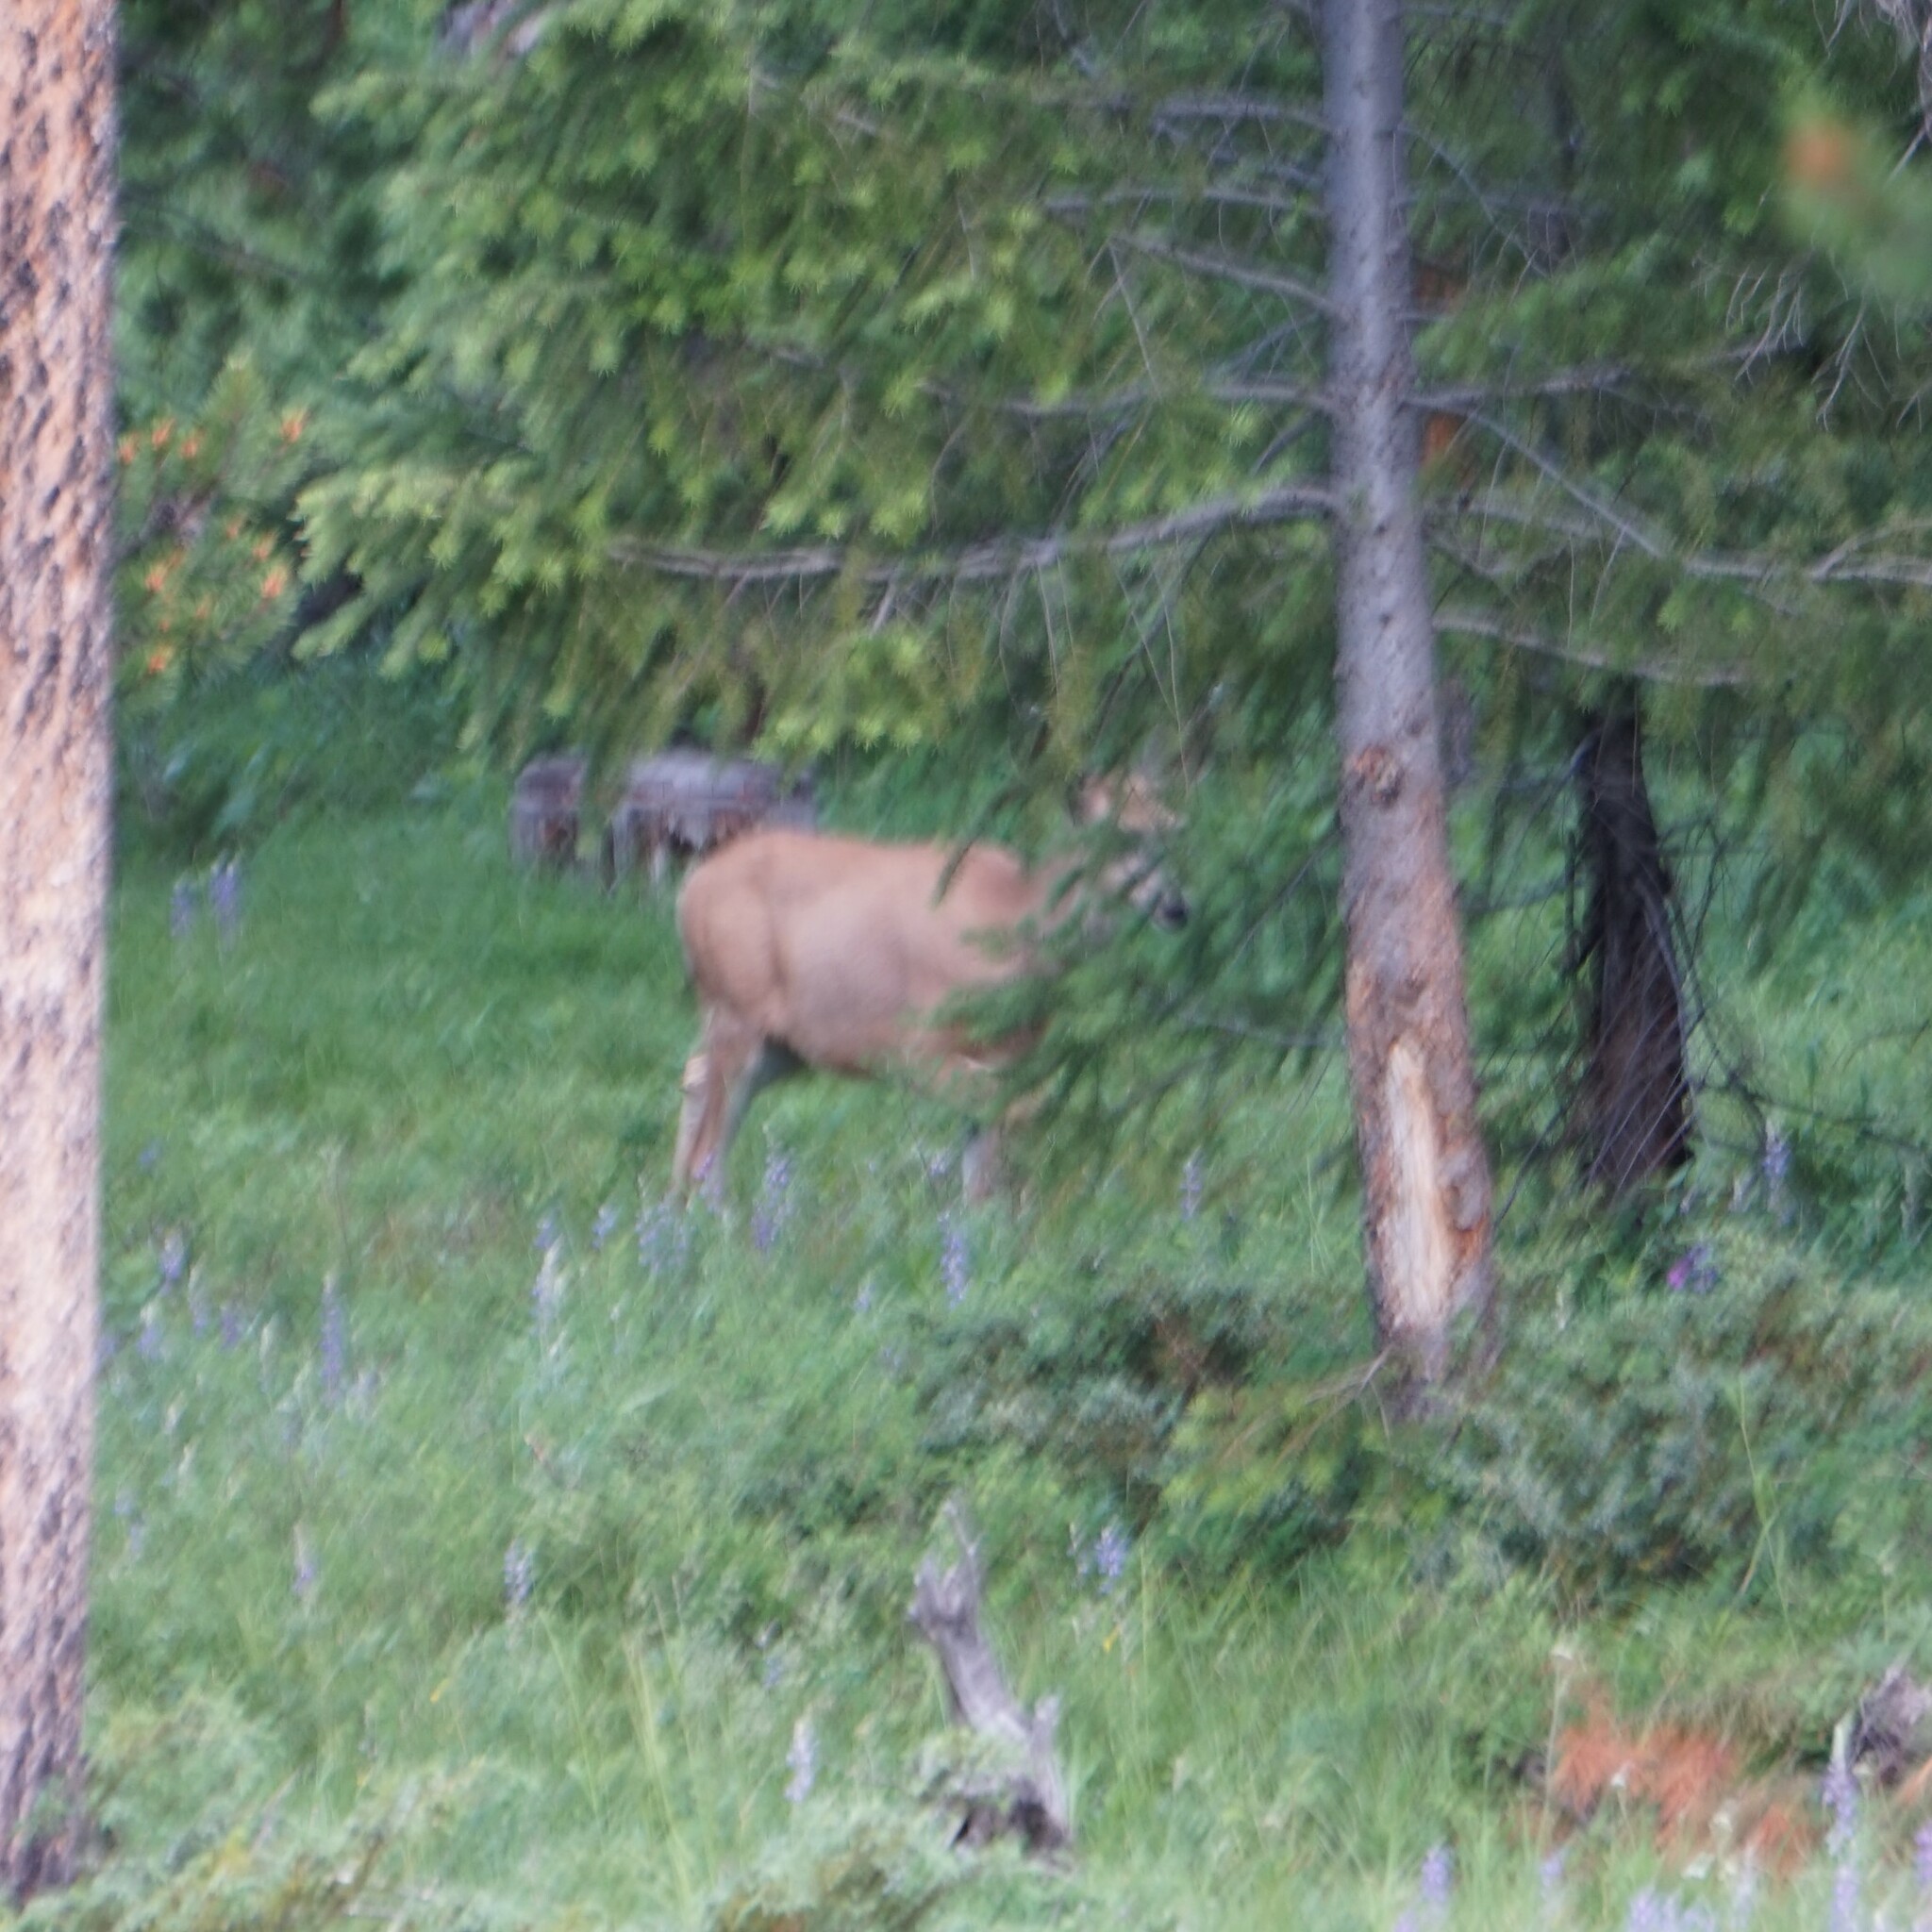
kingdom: Animalia
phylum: Chordata
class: Mammalia
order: Artiodactyla
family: Cervidae
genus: Odocoileus
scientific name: Odocoileus hemionus
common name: Mule deer
